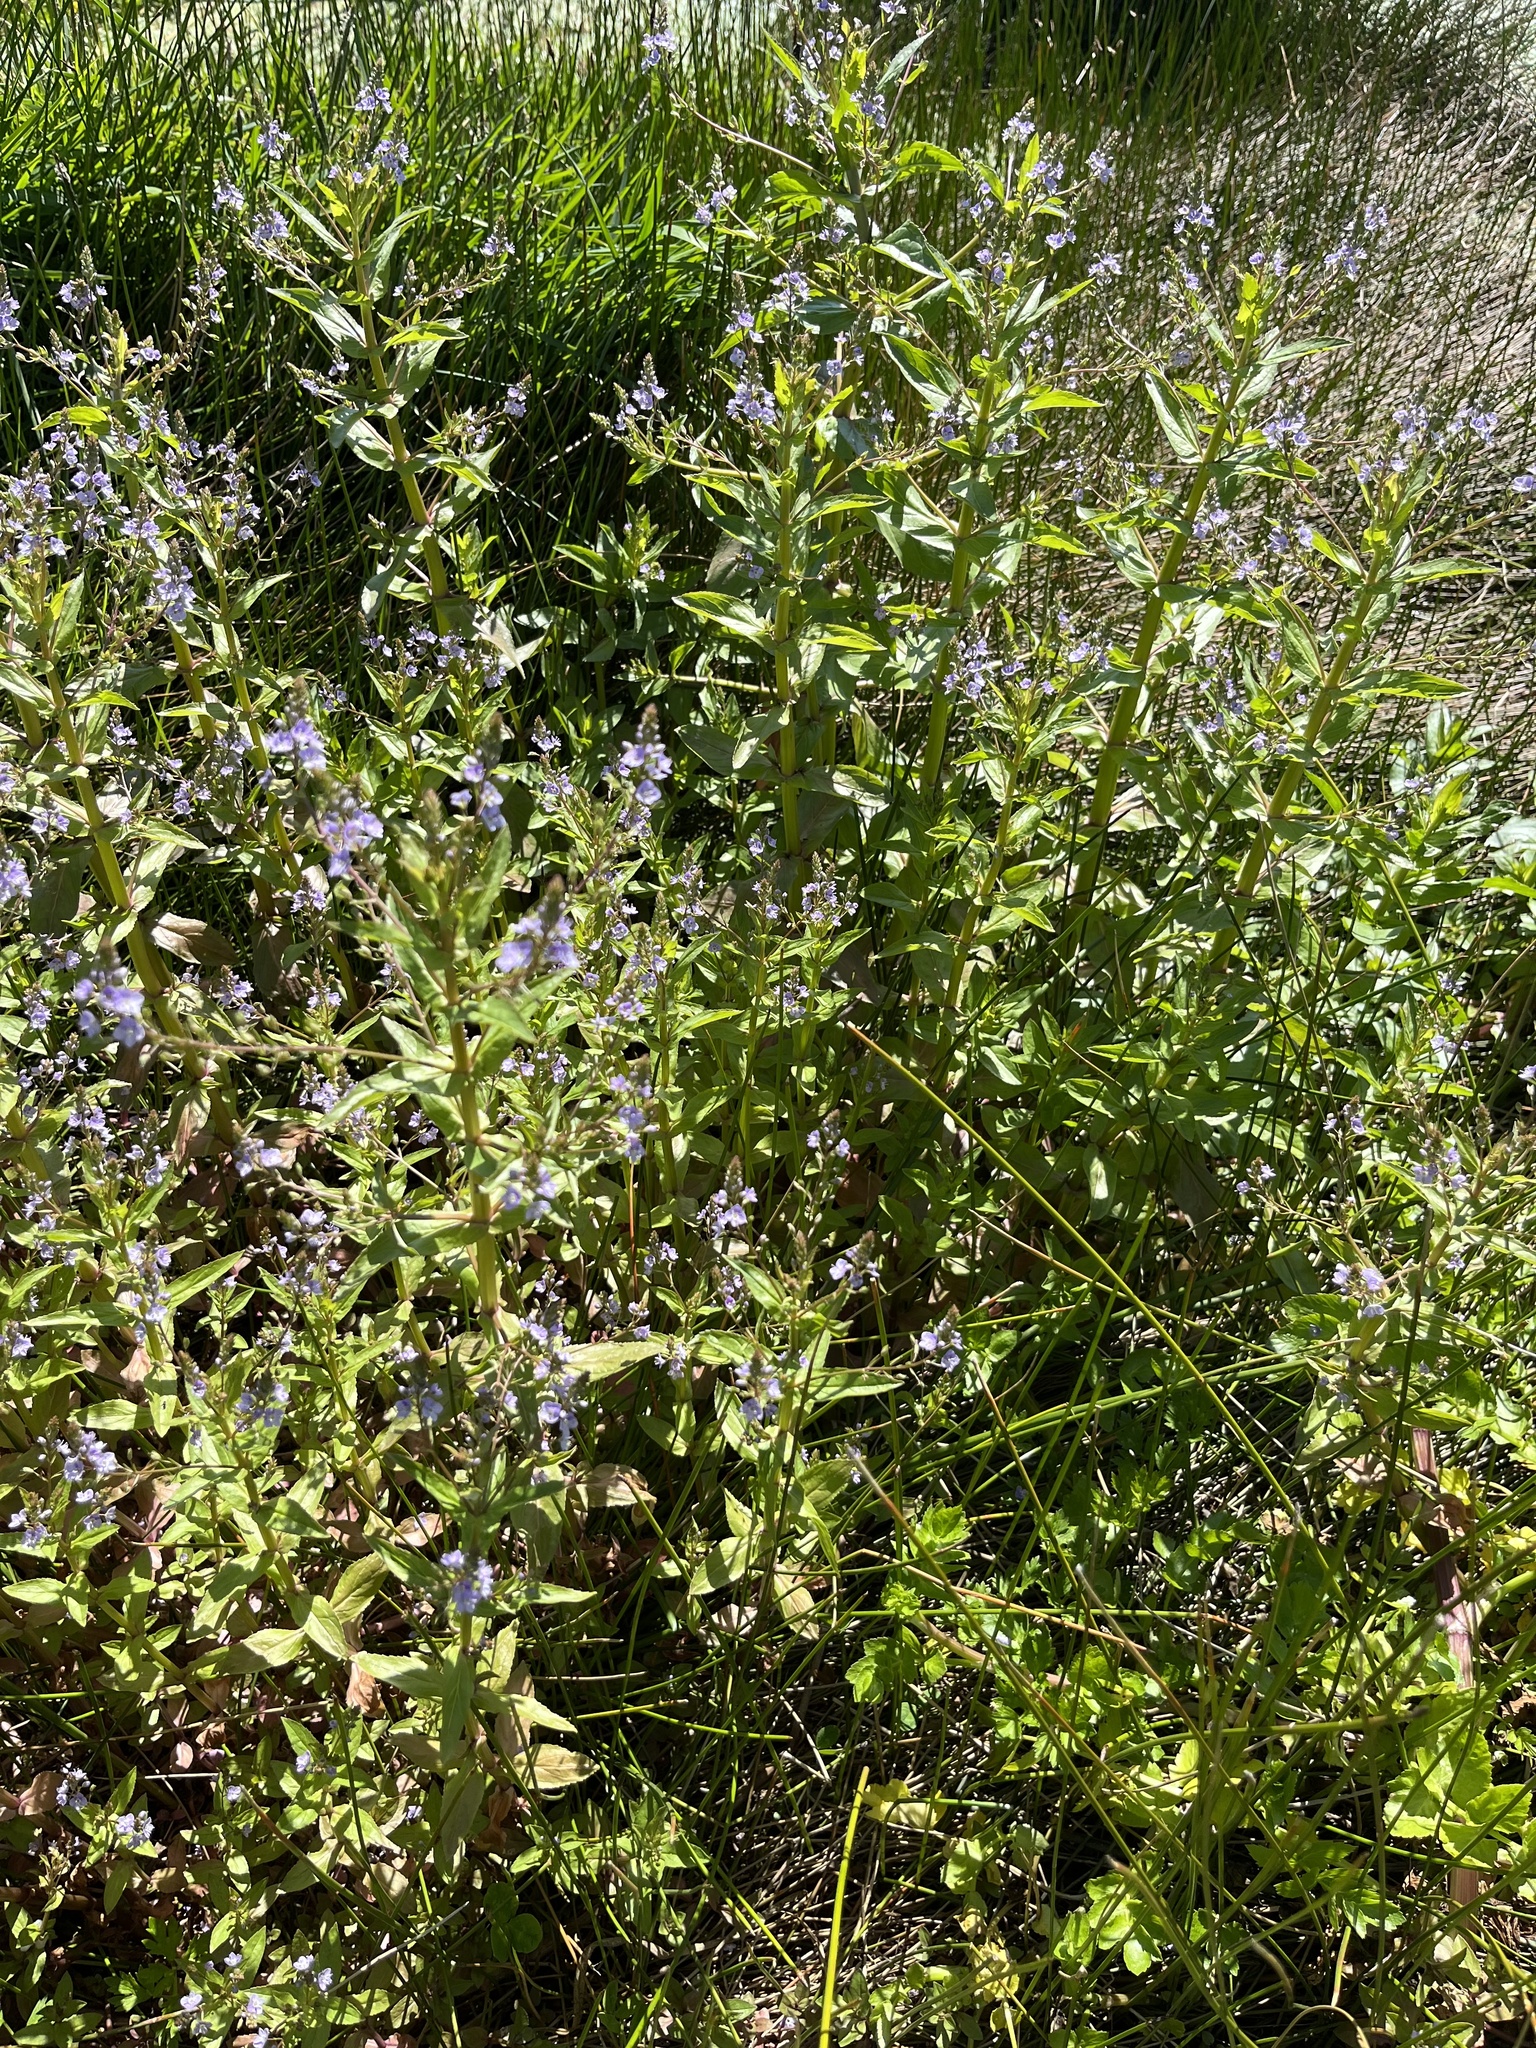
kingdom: Plantae
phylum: Tracheophyta
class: Magnoliopsida
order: Lamiales
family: Plantaginaceae
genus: Veronica
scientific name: Veronica anagallis-aquatica
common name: Water speedwell
